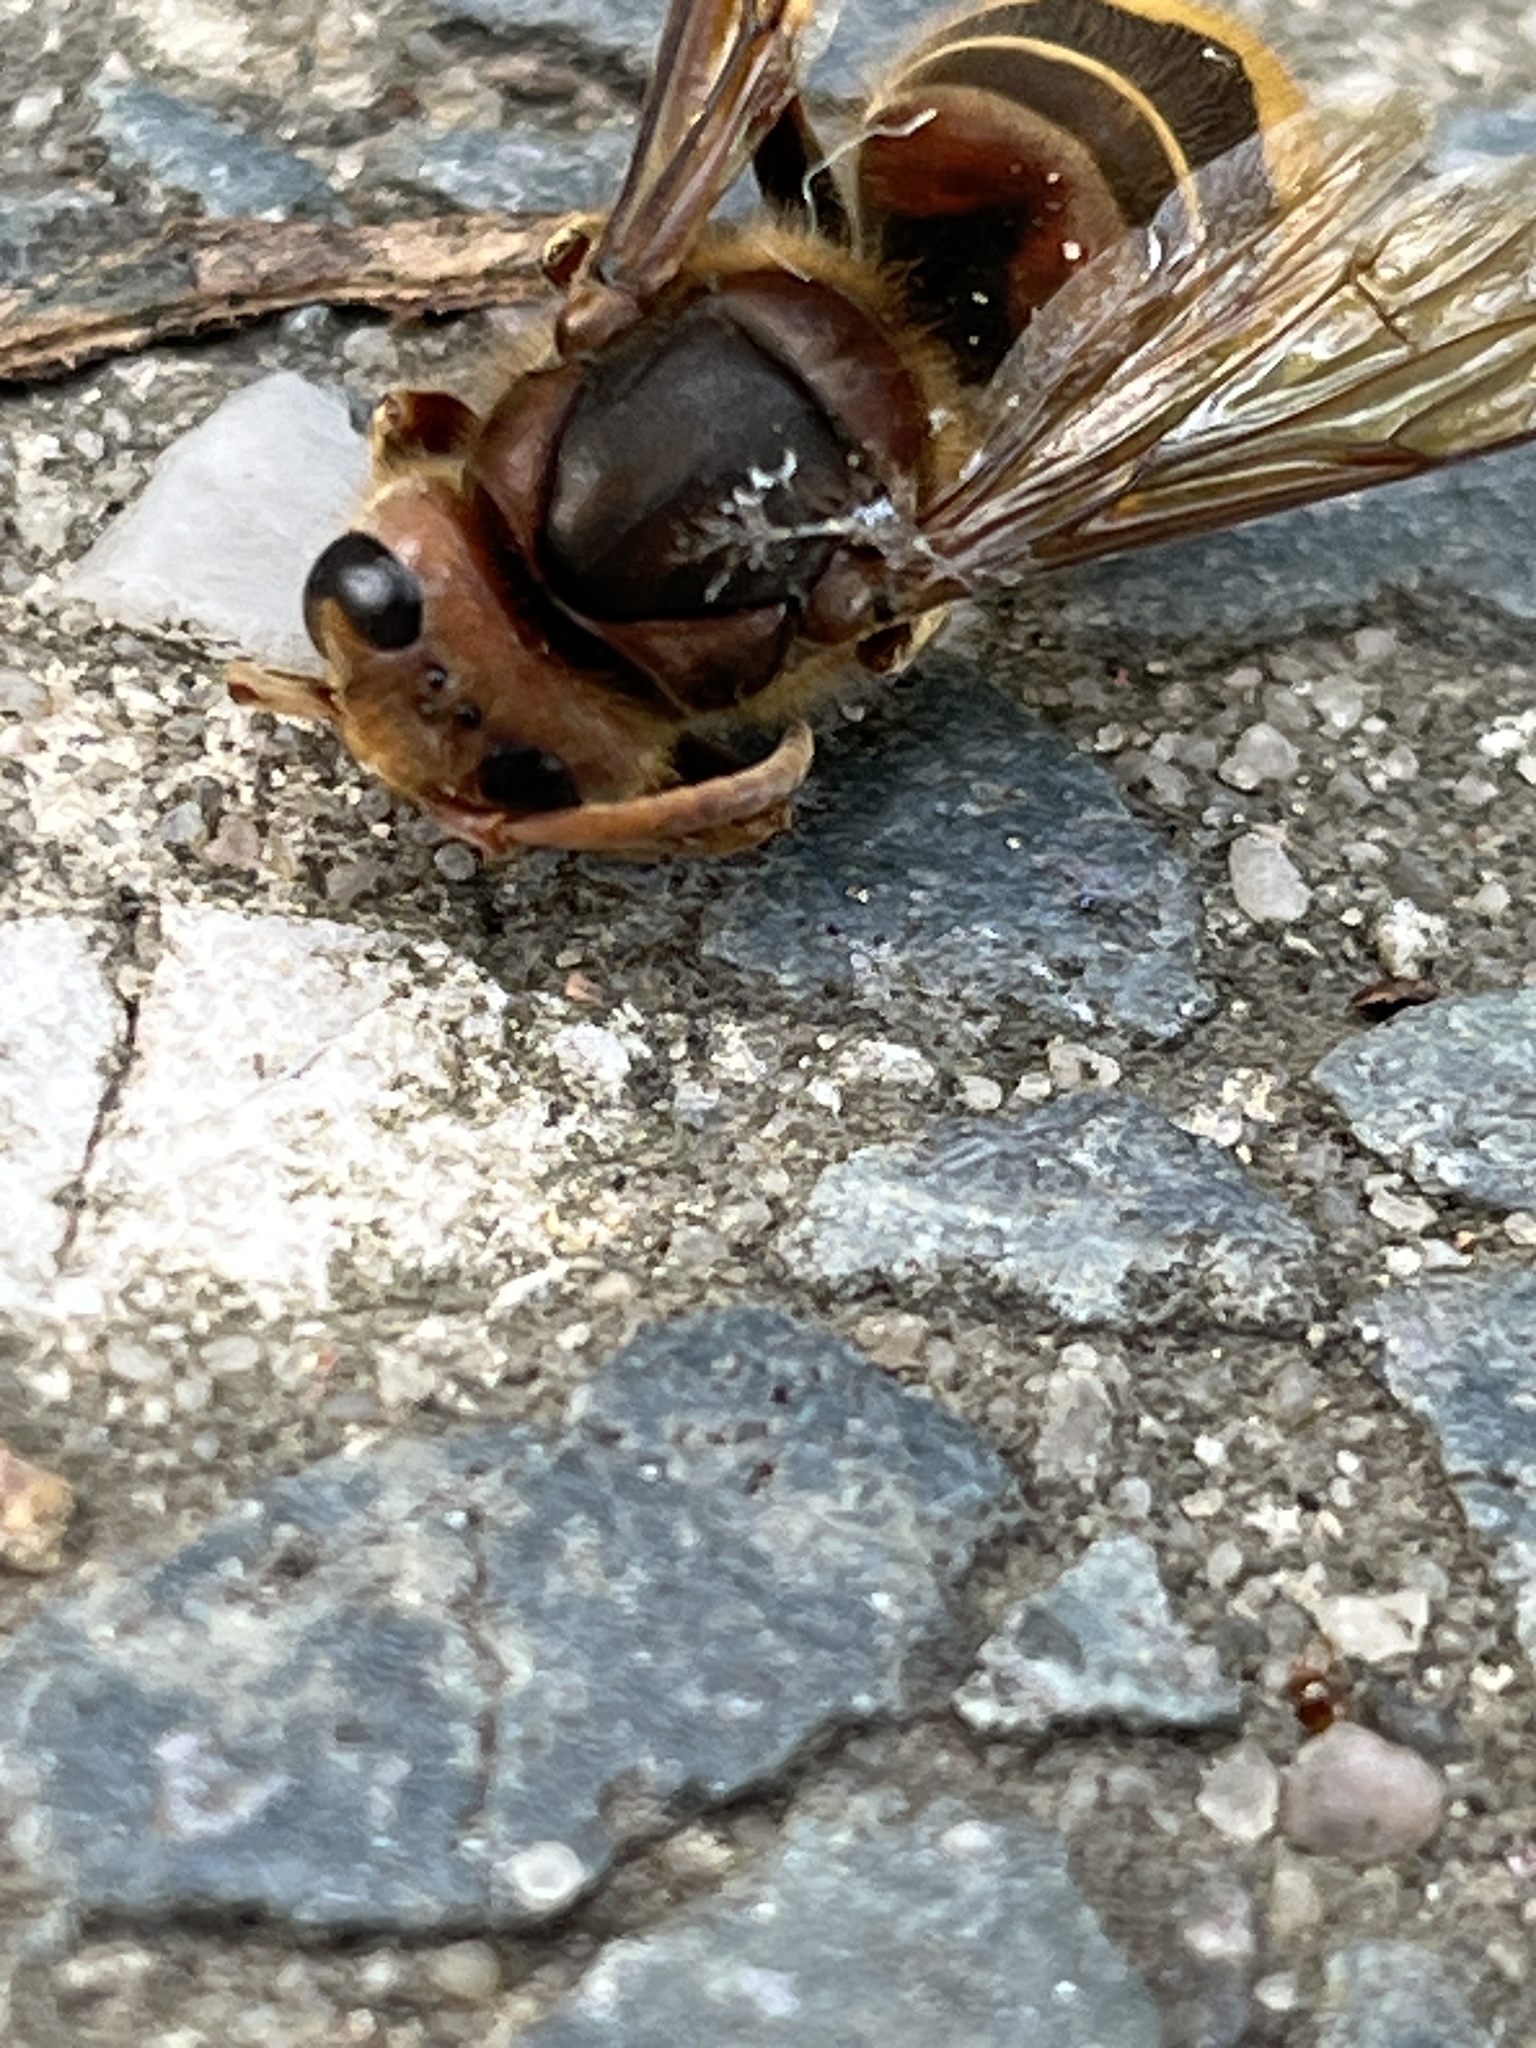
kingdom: Animalia
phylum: Arthropoda
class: Insecta
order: Hymenoptera
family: Vespidae
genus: Vespa
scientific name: Vespa crabro
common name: Hornet
